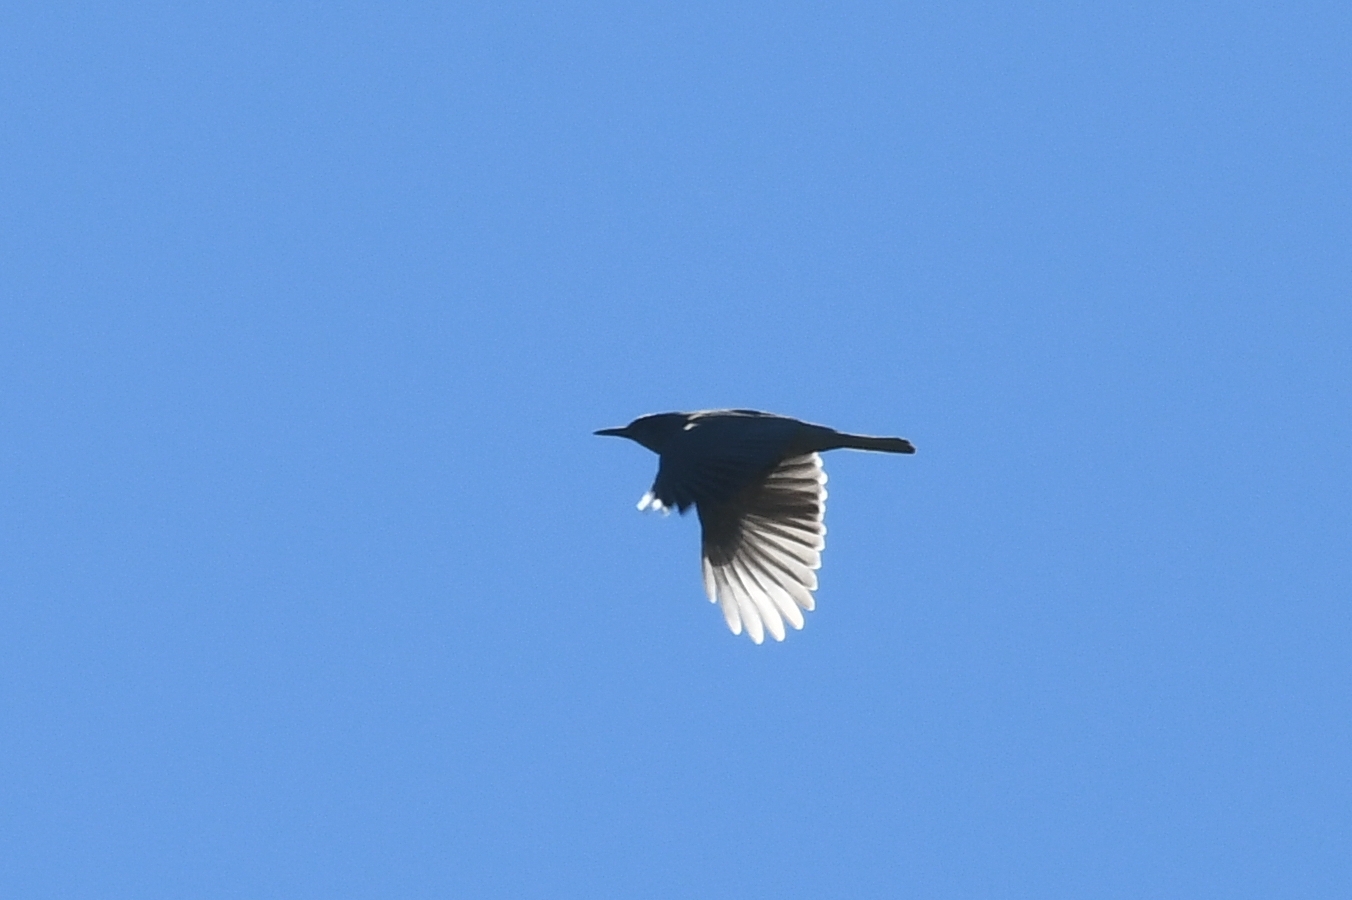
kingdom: Animalia
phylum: Chordata
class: Aves
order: Passeriformes
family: Corvidae
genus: Gymnorhinus
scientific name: Gymnorhinus cyanocephalus
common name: Pinyon jay
